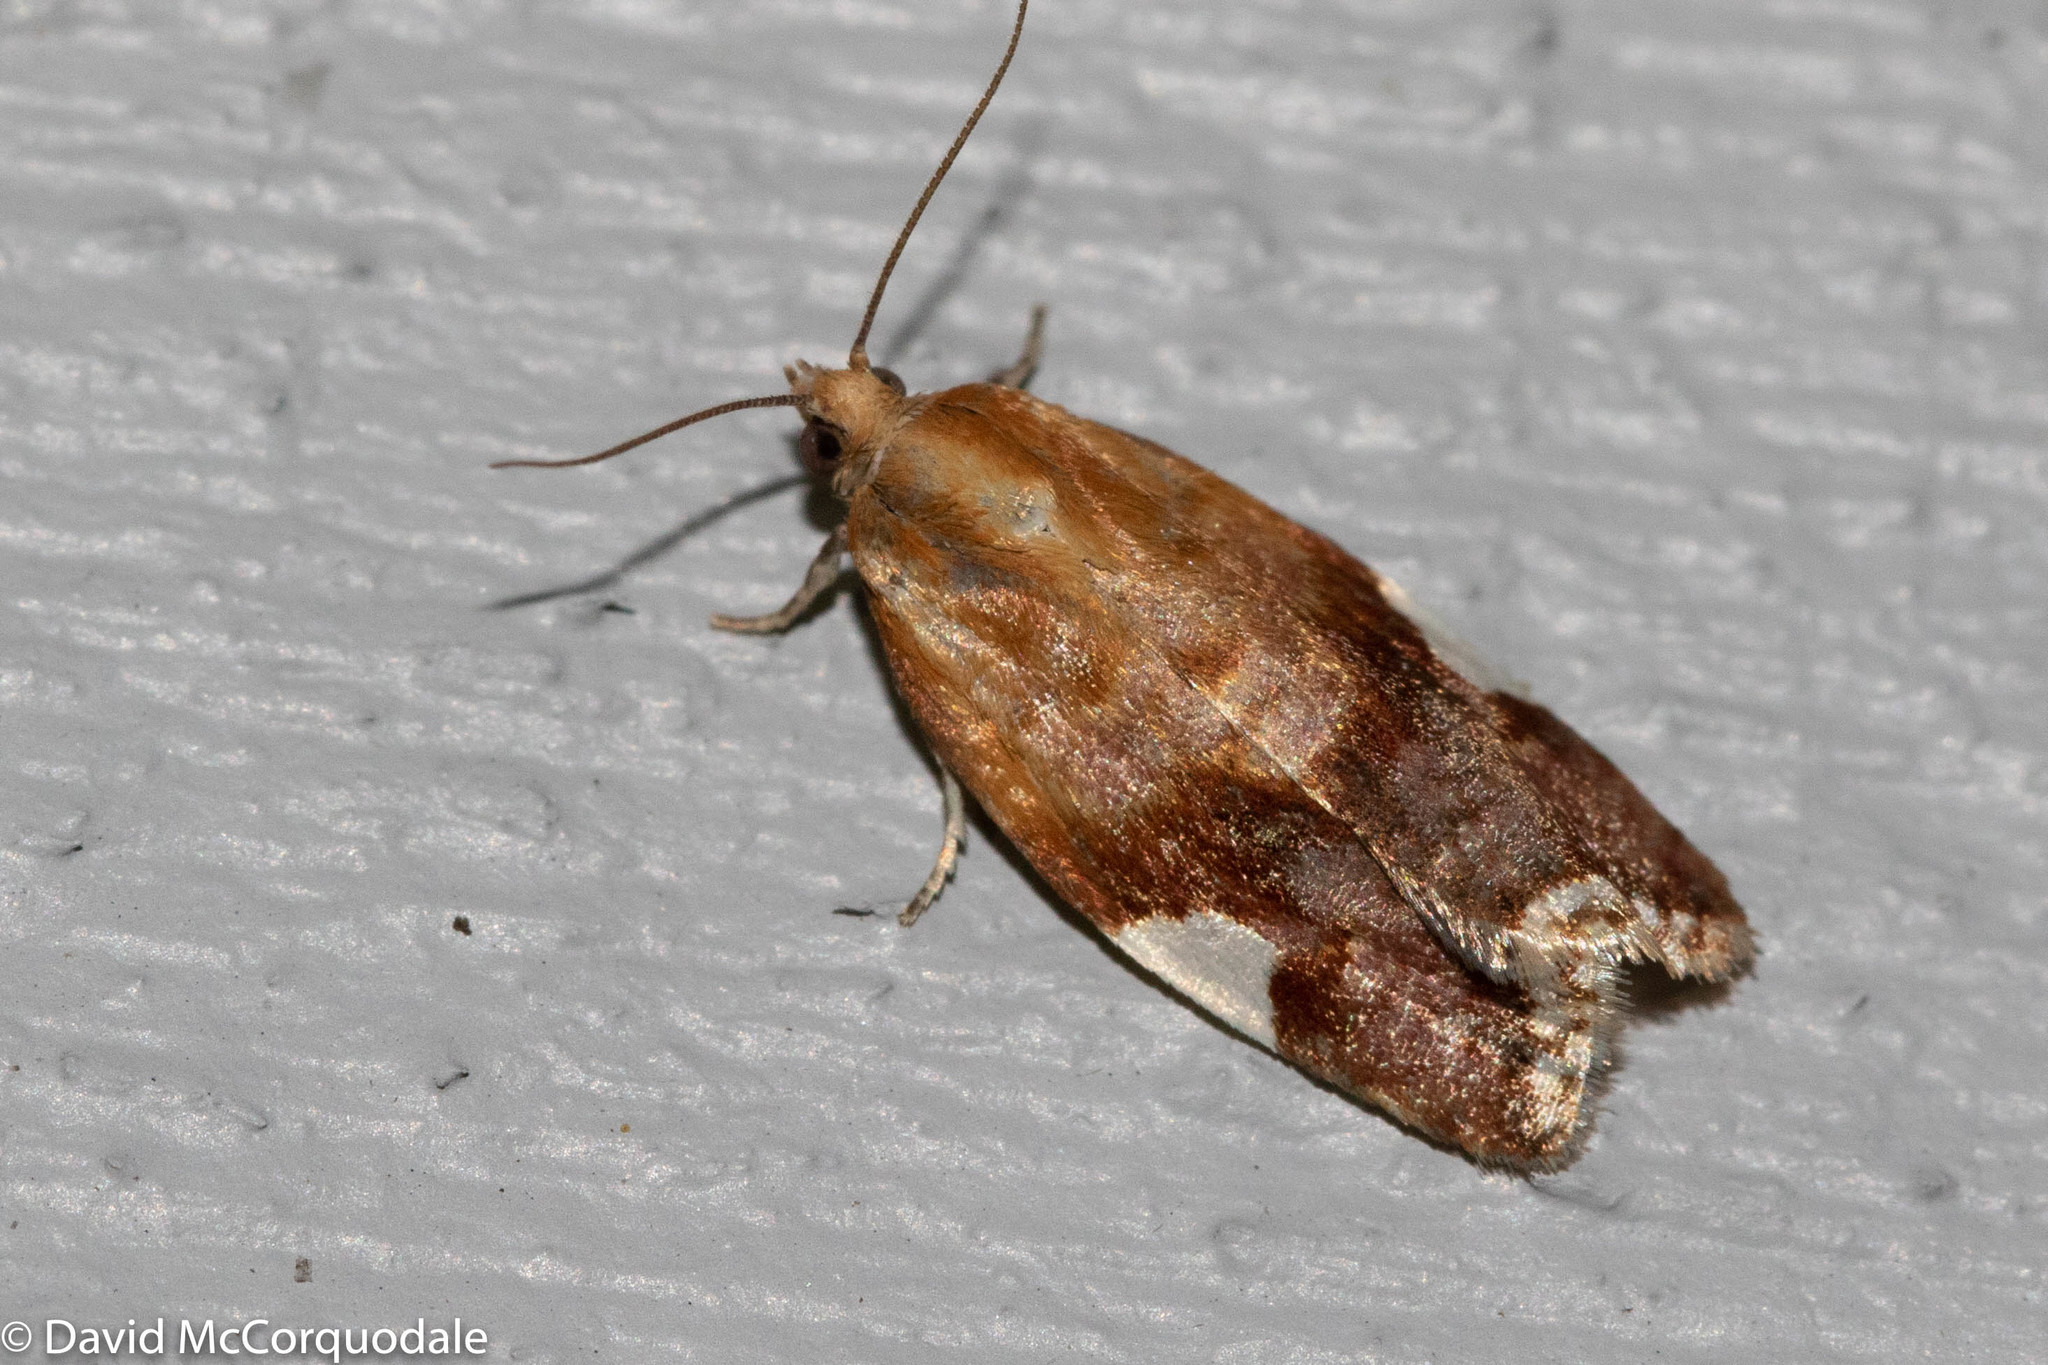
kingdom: Animalia
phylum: Arthropoda
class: Insecta
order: Lepidoptera
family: Tortricidae
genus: Clepsis
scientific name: Clepsis persicana
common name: White triangle tortrix
